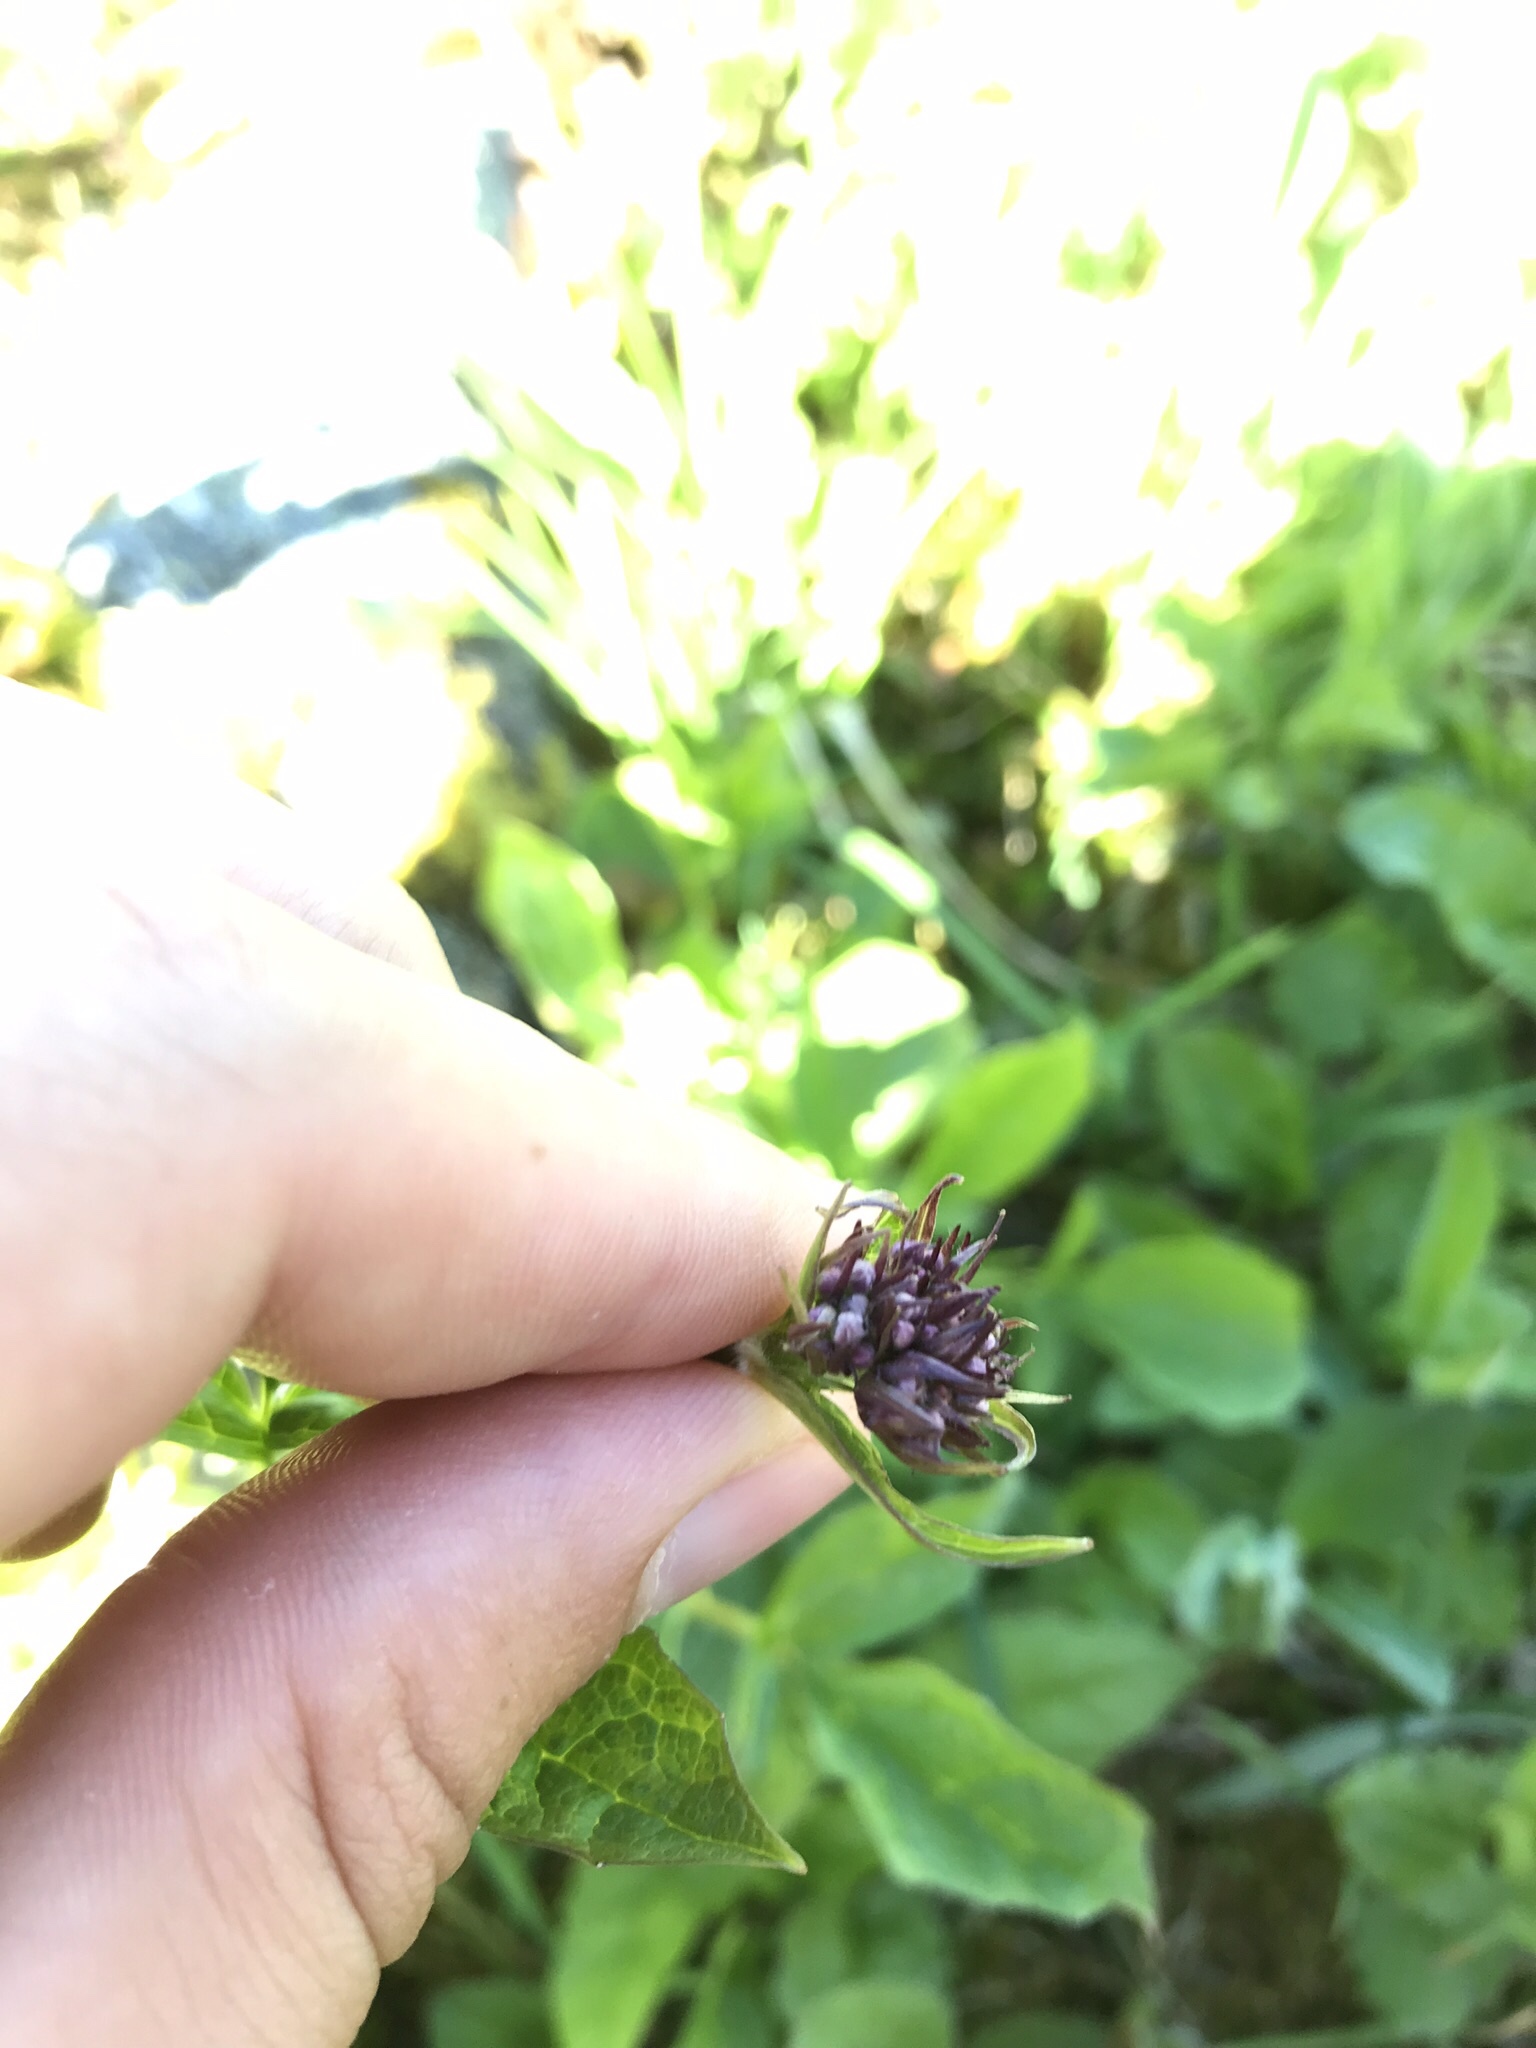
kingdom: Plantae
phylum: Tracheophyta
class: Magnoliopsida
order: Dipsacales
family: Caprifoliaceae
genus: Valeriana
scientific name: Valeriana sitchensis
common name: Pacific valerian
